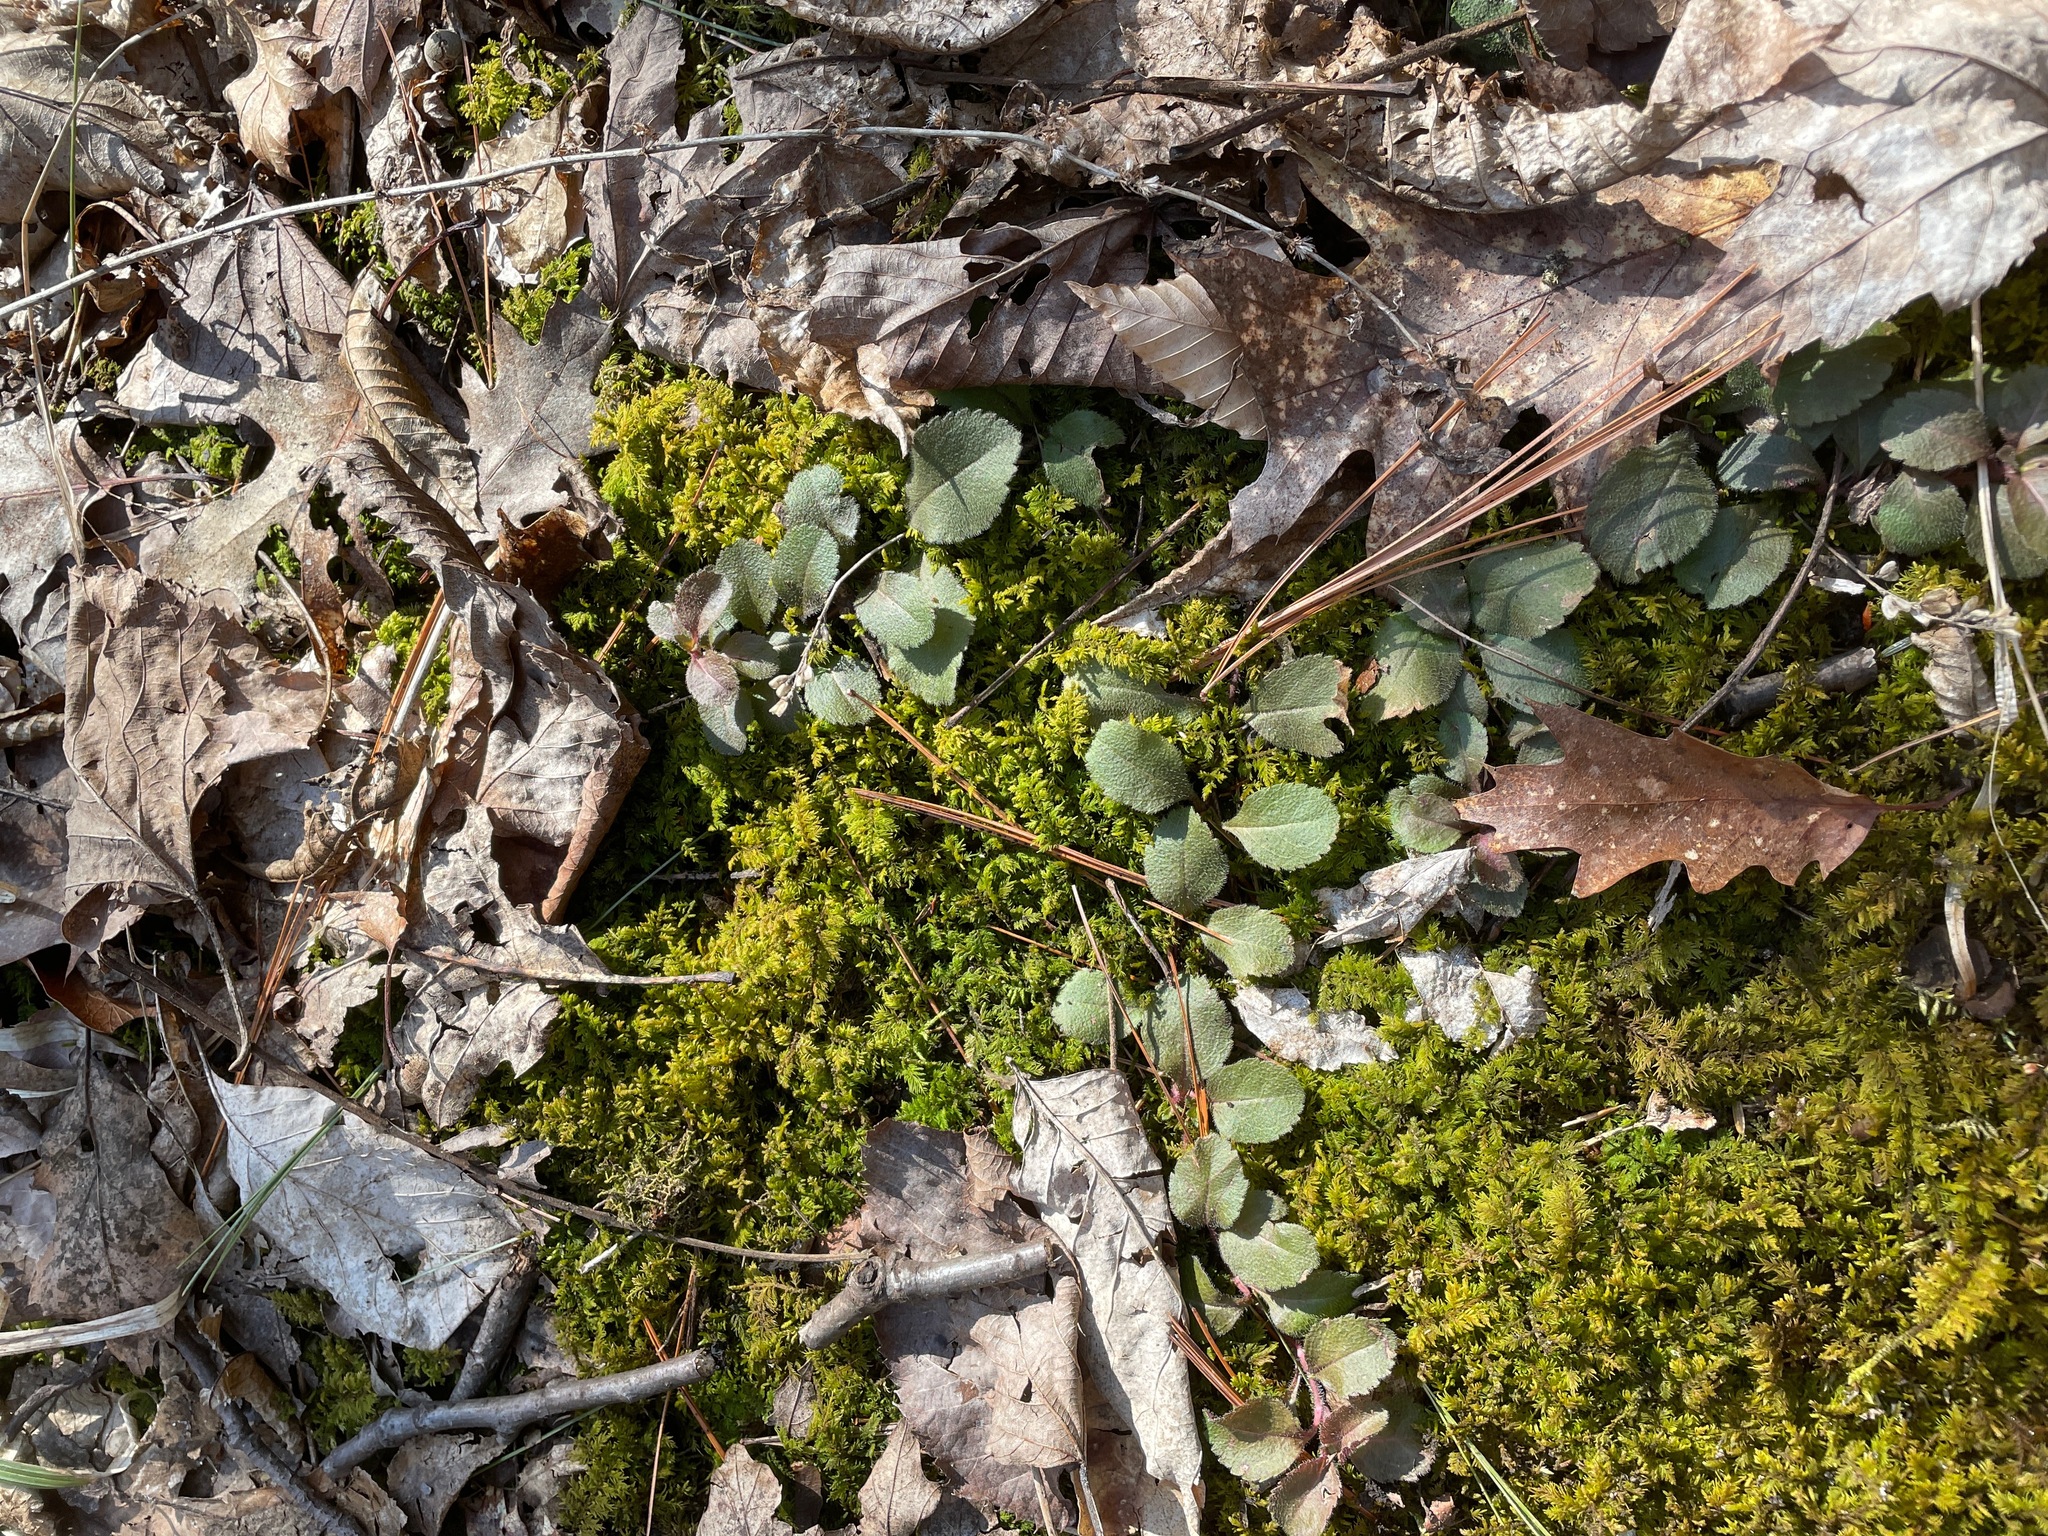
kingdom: Plantae
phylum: Tracheophyta
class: Magnoliopsida
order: Lamiales
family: Plantaginaceae
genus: Veronica
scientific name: Veronica officinalis
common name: Common speedwell
